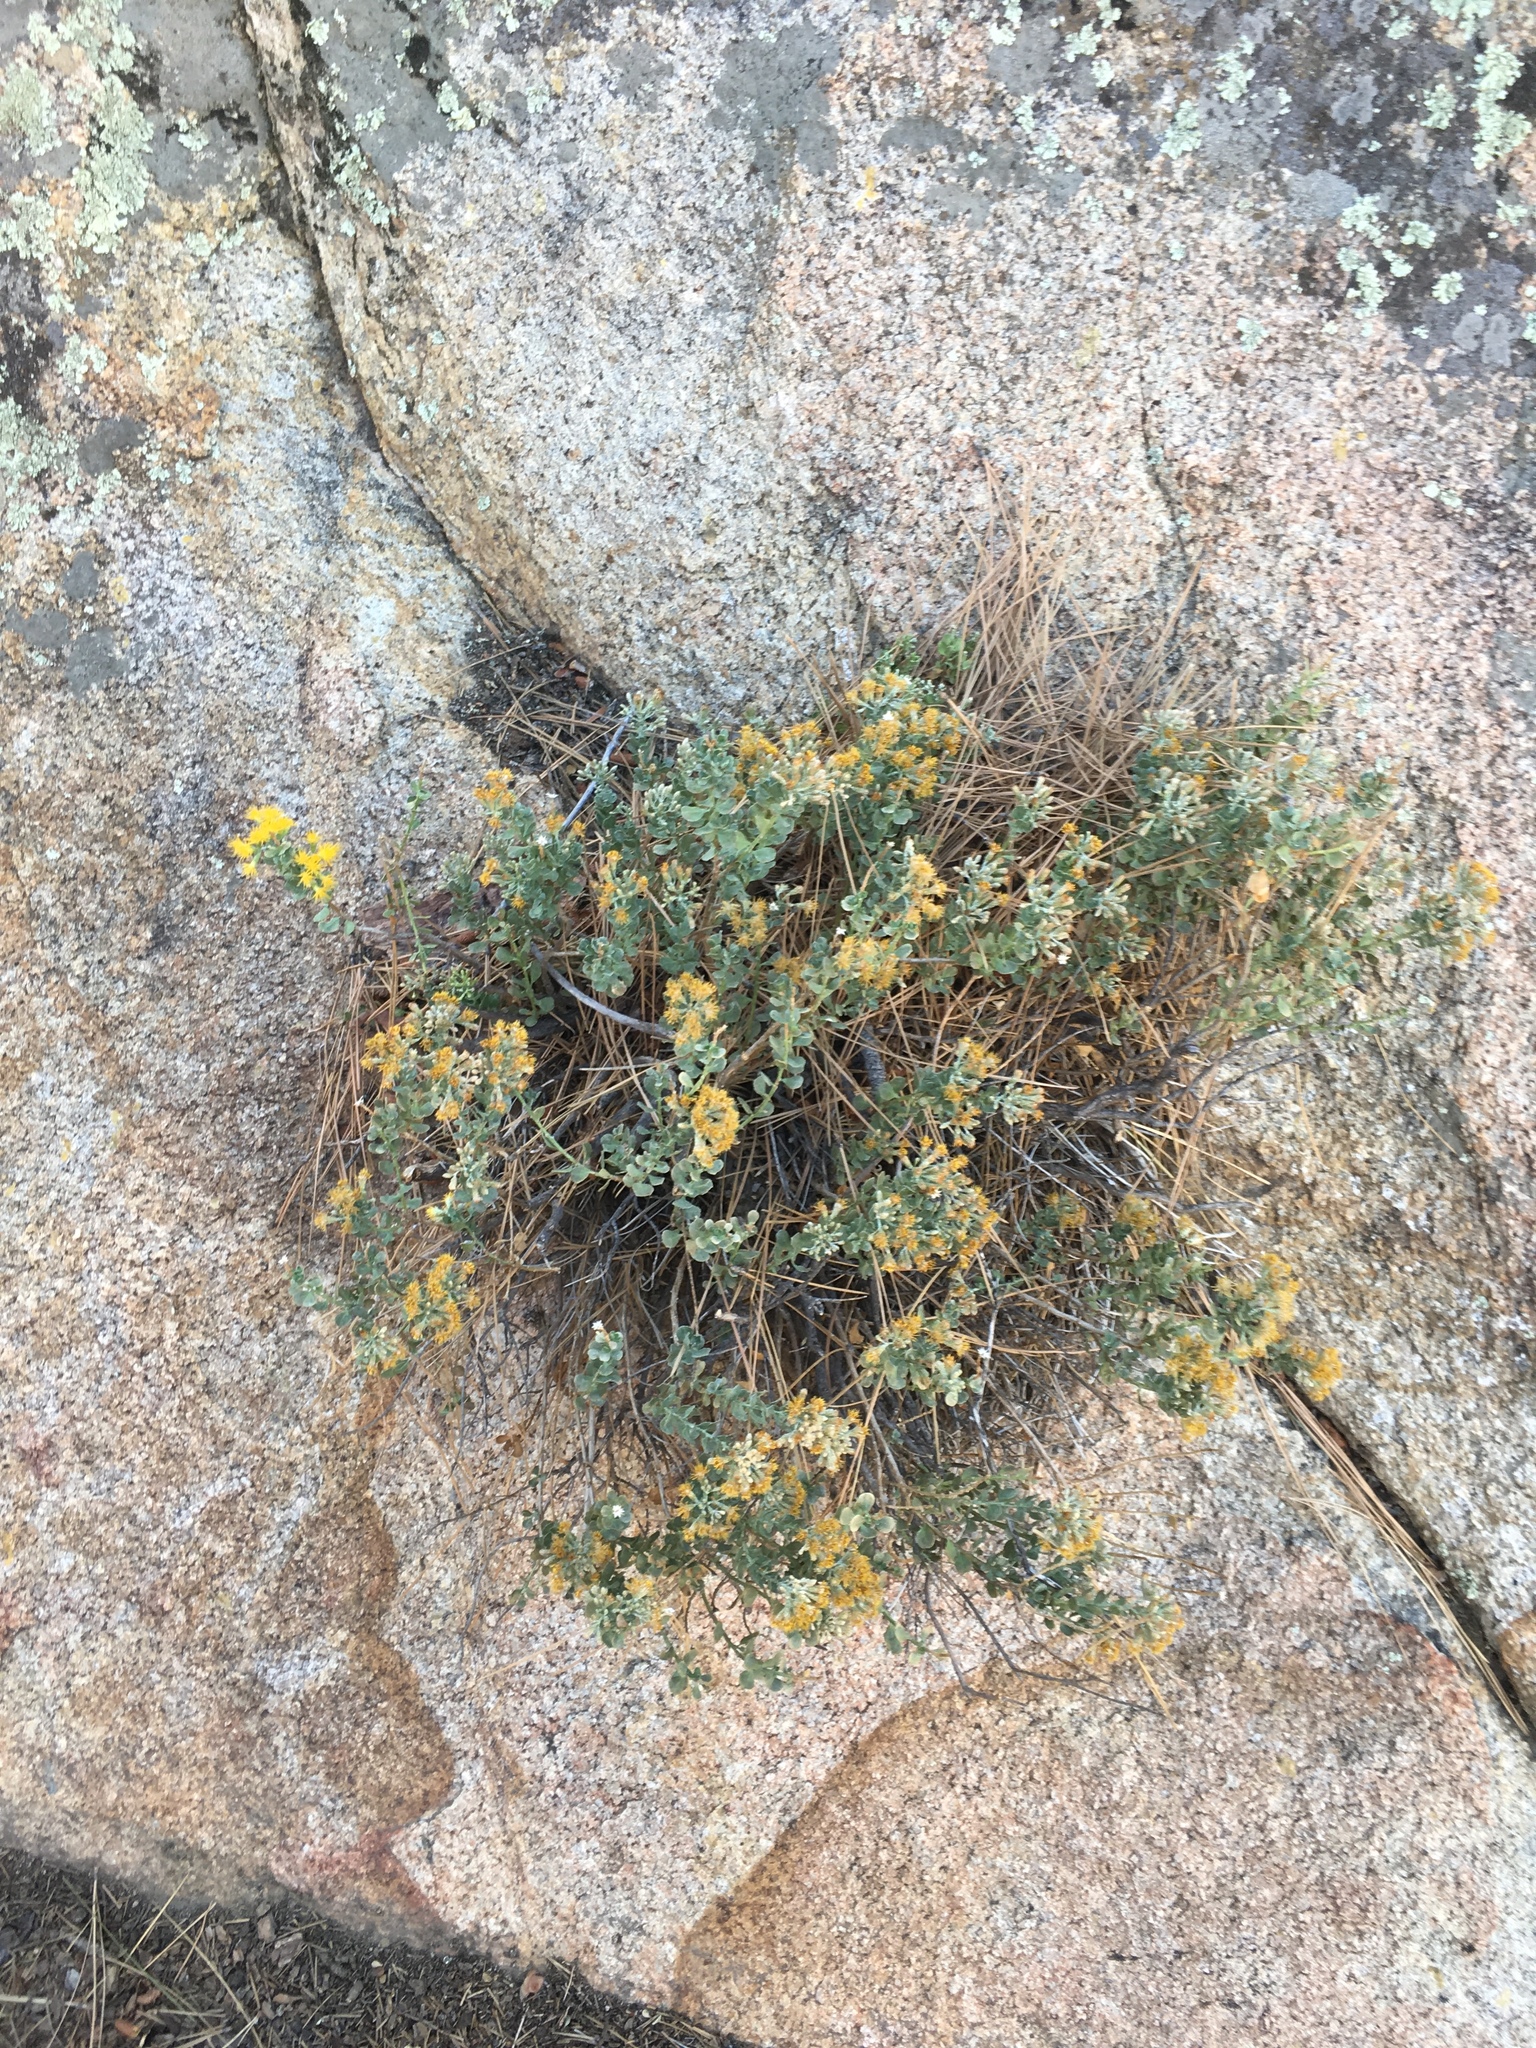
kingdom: Plantae
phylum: Tracheophyta
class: Magnoliopsida
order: Asterales
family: Asteraceae
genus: Ericameria
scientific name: Ericameria cuneata
